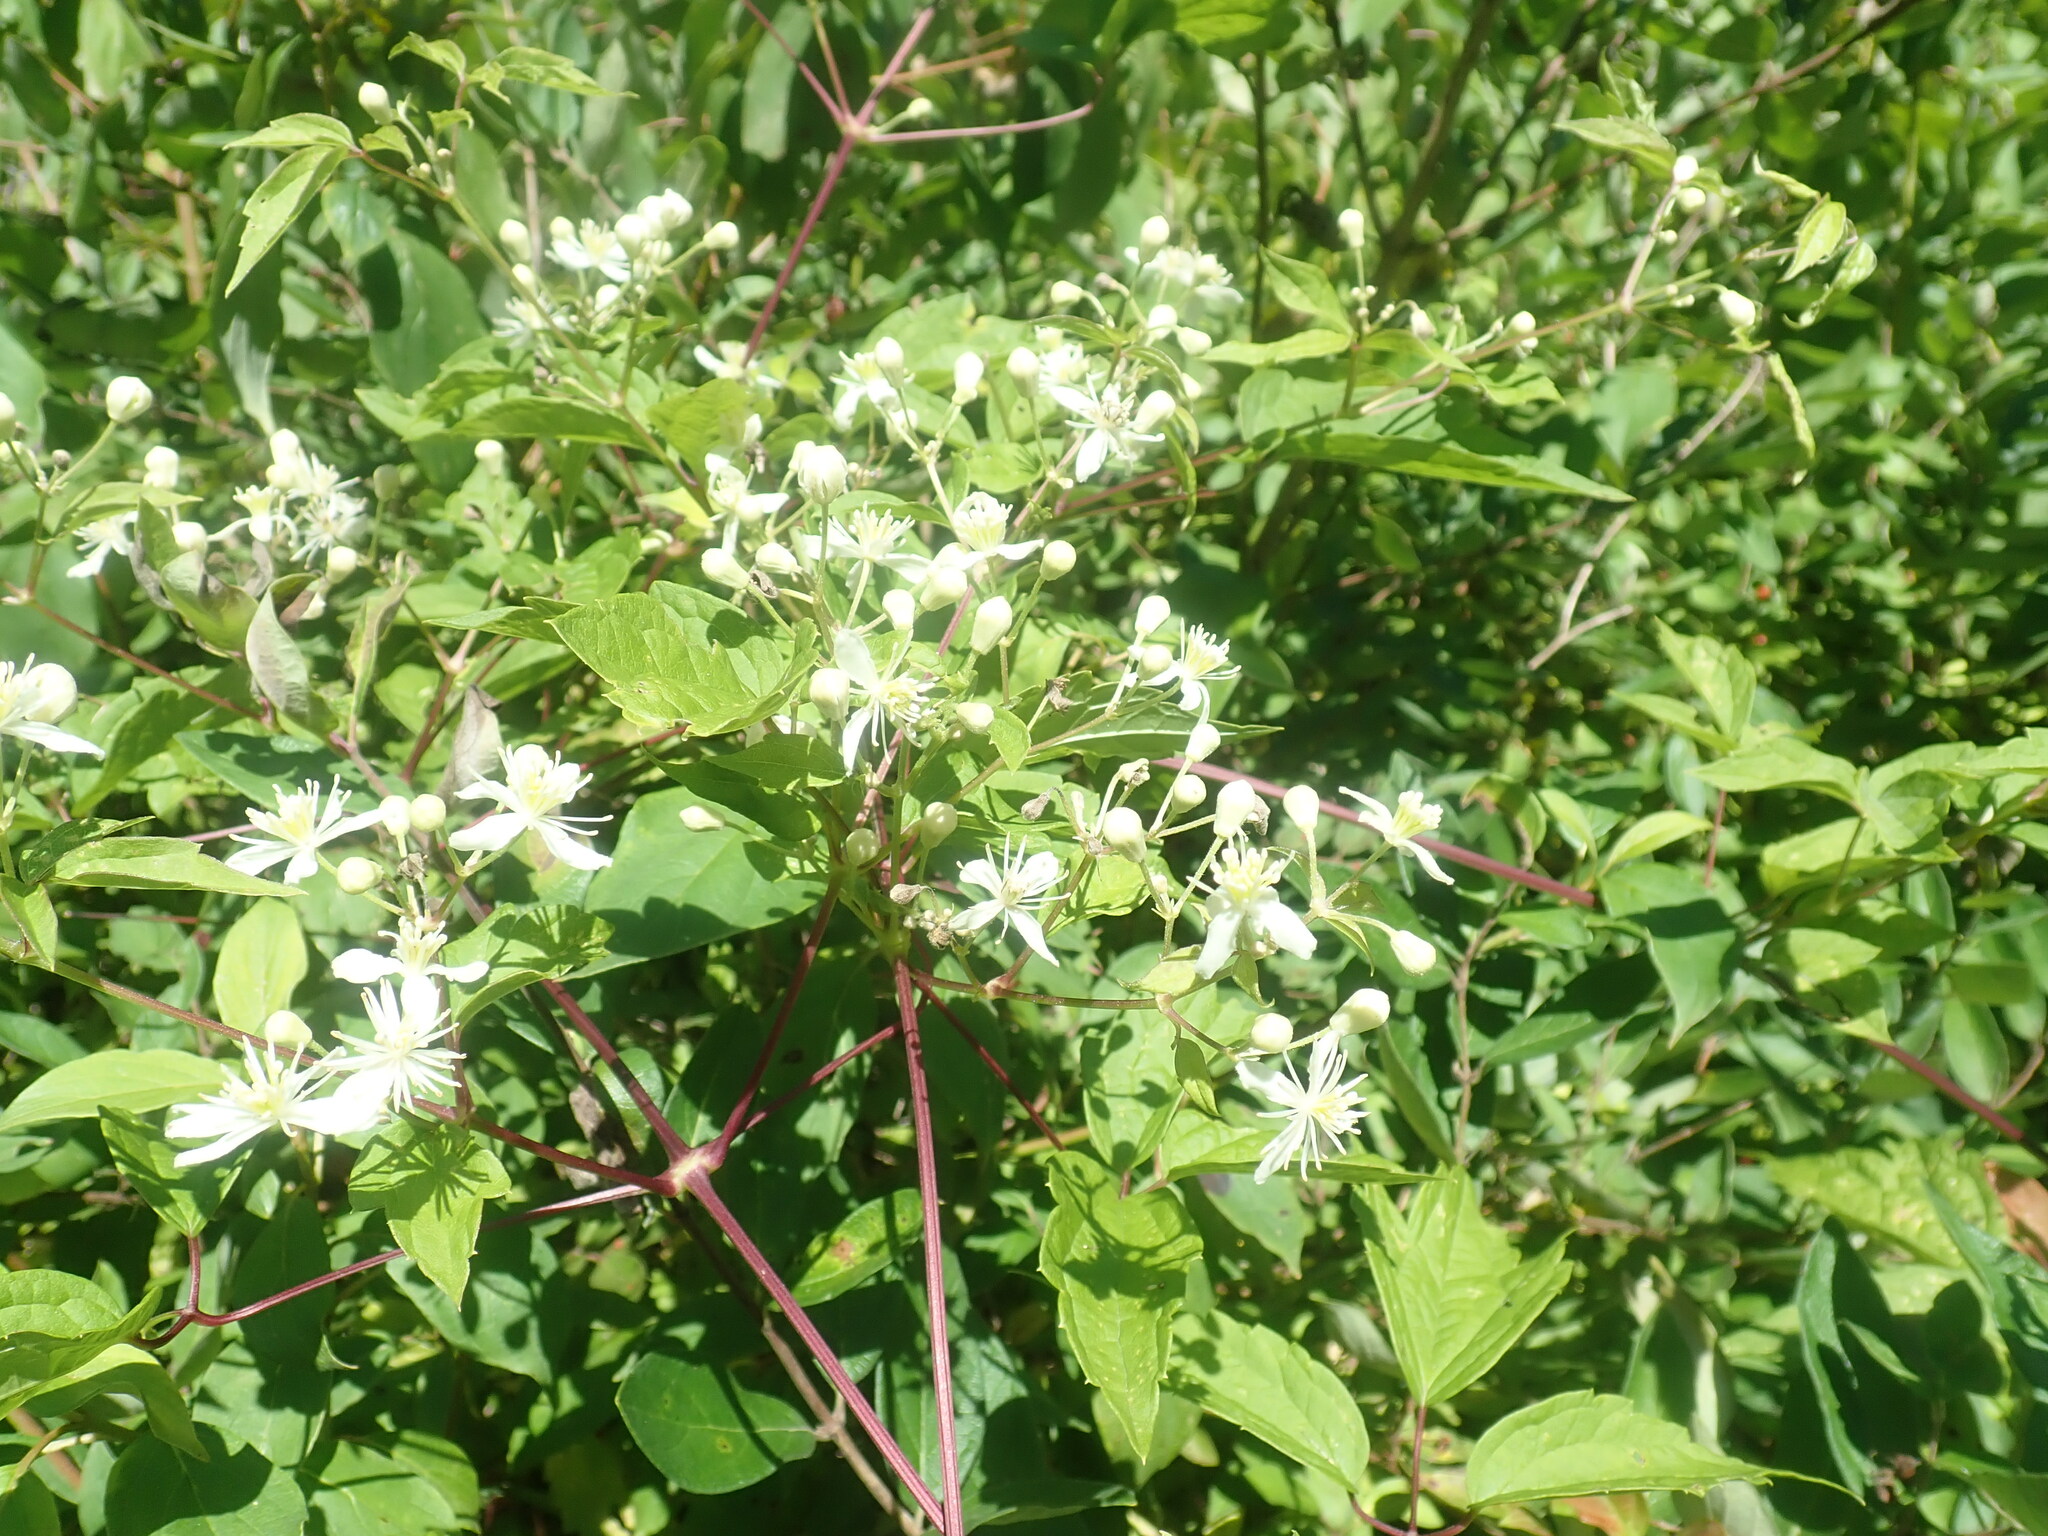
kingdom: Plantae
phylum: Tracheophyta
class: Magnoliopsida
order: Ranunculales
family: Ranunculaceae
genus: Clematis
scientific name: Clematis virginiana
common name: Virgin's-bower
